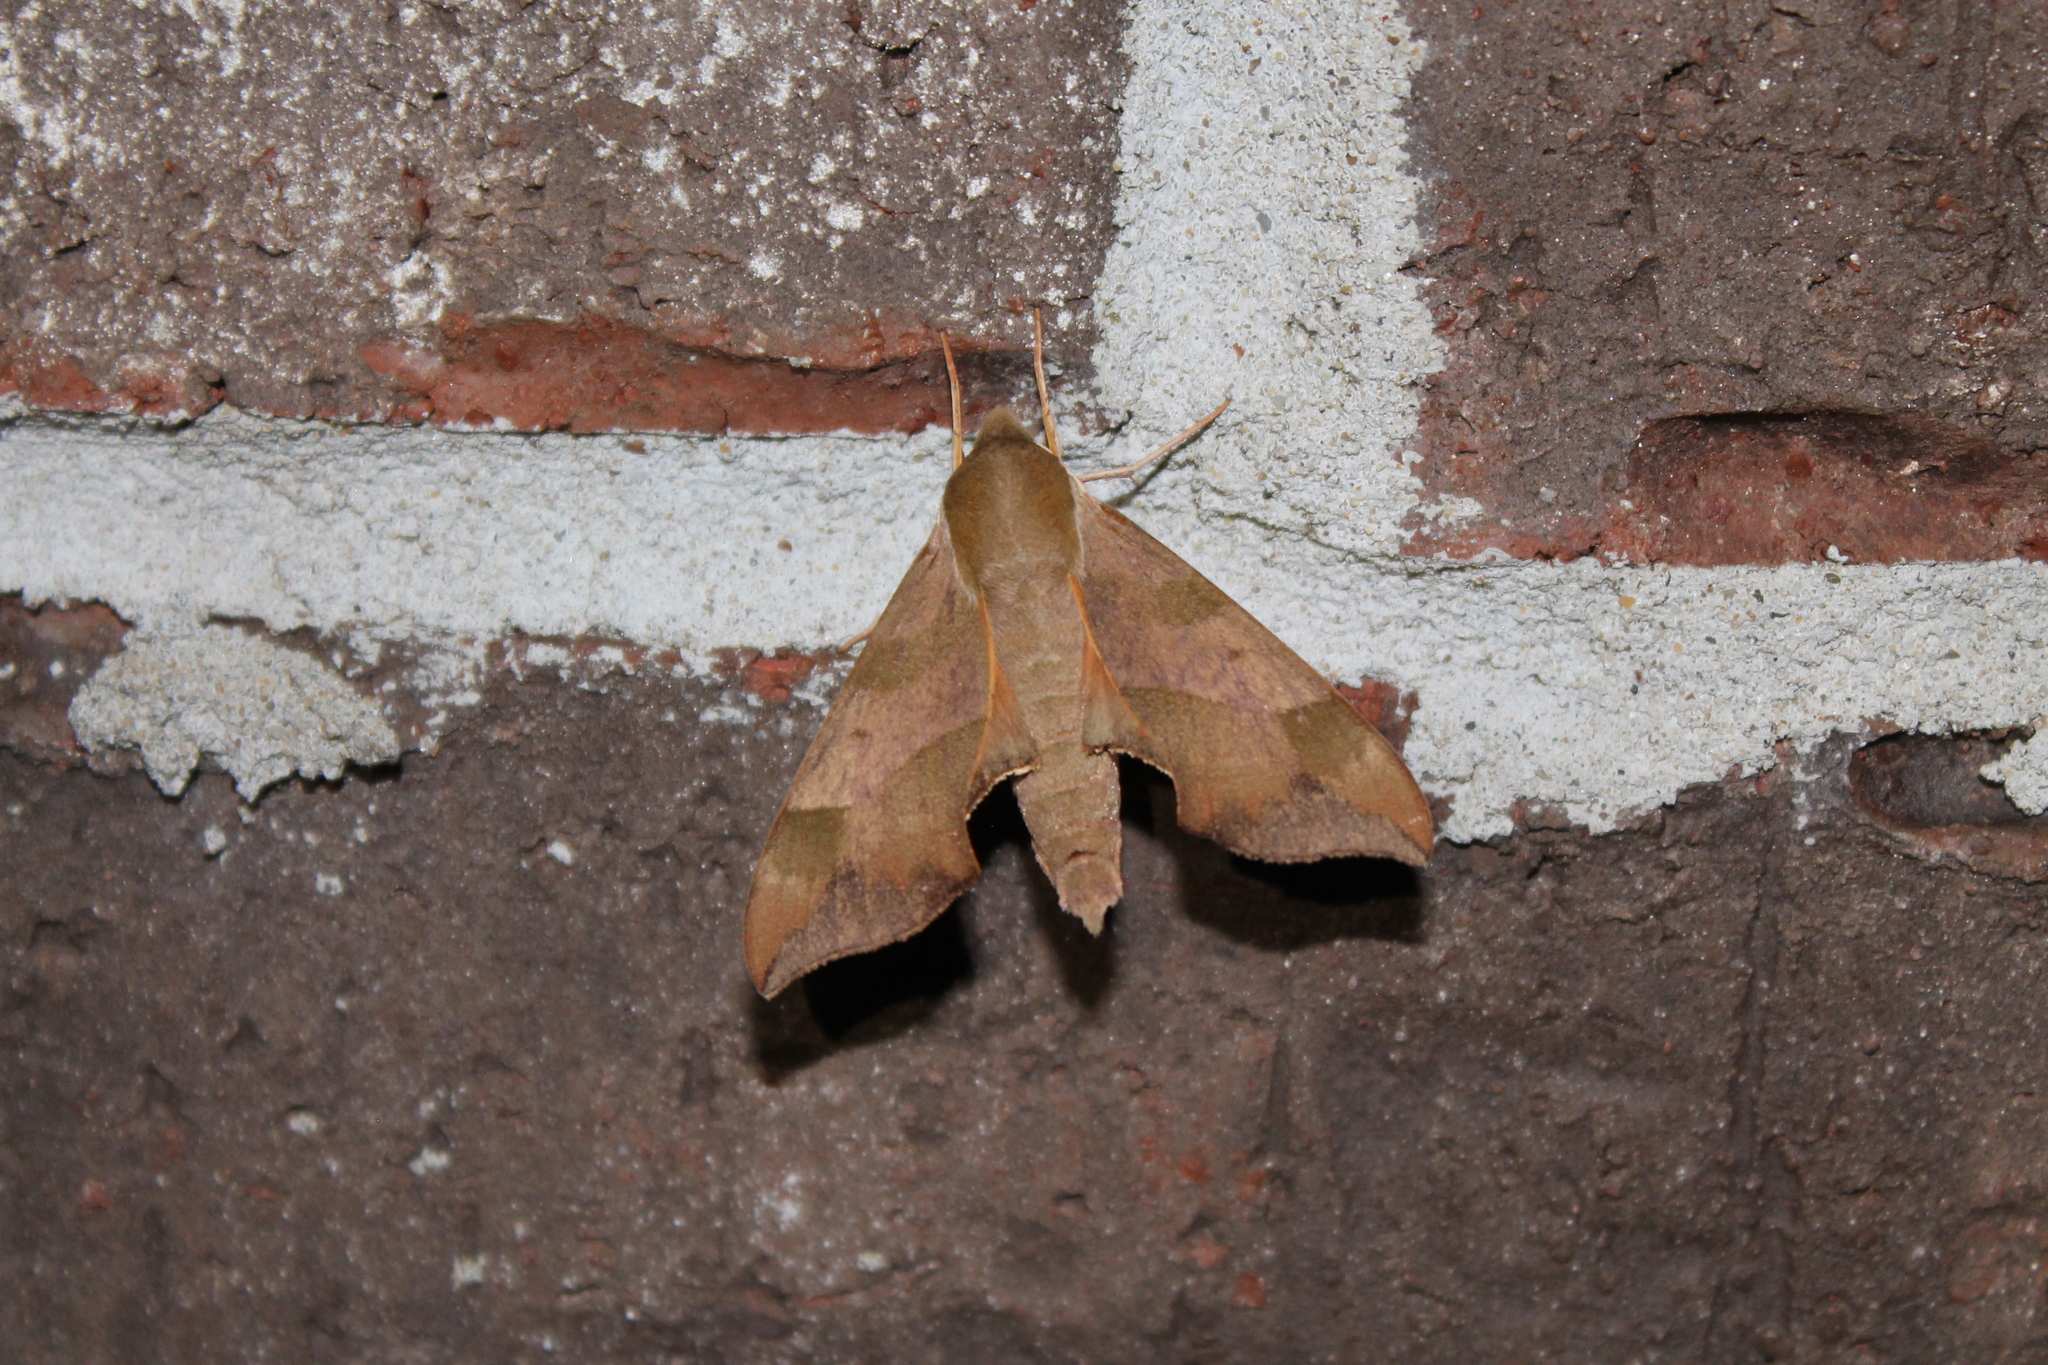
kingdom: Animalia
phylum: Arthropoda
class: Insecta
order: Lepidoptera
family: Sphingidae
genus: Darapsa
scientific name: Darapsa myron
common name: Hog sphinx
